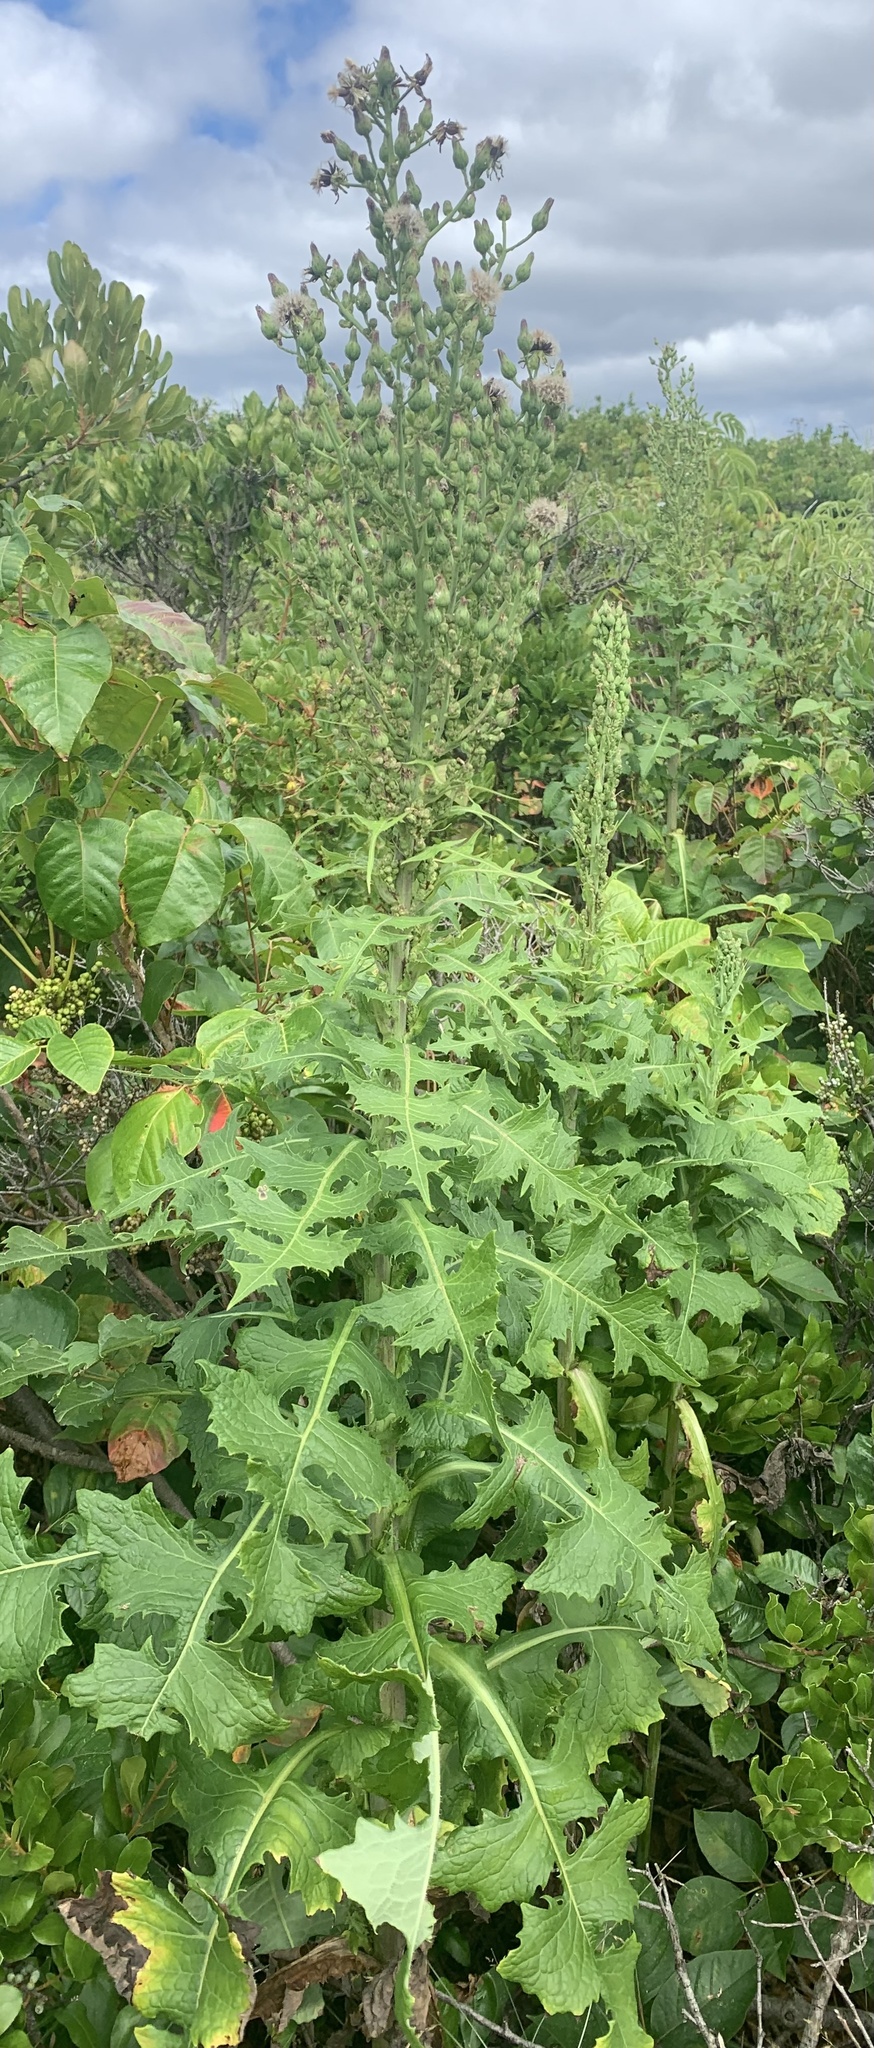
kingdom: Plantae
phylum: Tracheophyta
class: Magnoliopsida
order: Asterales
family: Asteraceae
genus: Lactuca
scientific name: Lactuca biennis
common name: Blue wood lettuce
